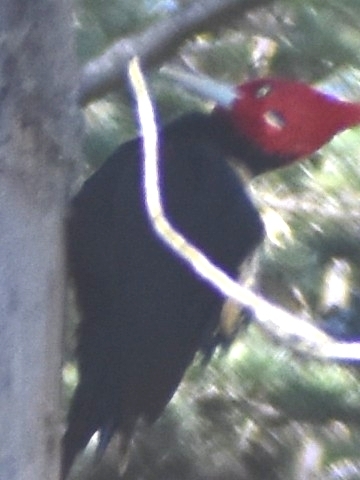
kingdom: Animalia
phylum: Chordata
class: Aves
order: Piciformes
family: Picidae
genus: Campephilus
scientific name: Campephilus leucopogon
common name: Cream-backed woodpecker
